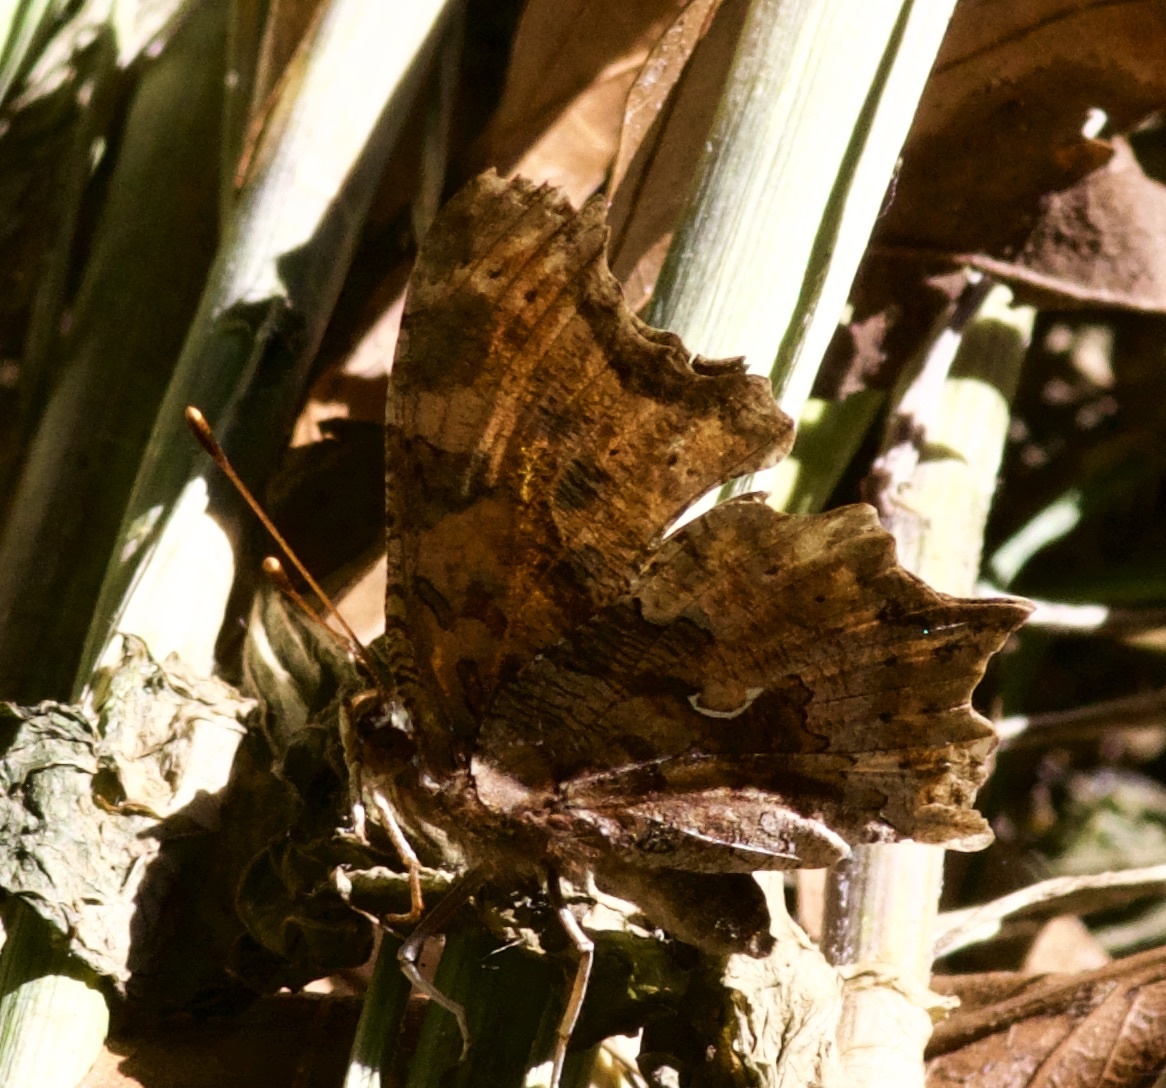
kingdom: Animalia
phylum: Arthropoda
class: Insecta
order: Lepidoptera
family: Nymphalidae
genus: Polygonia
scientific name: Polygonia comma
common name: Eastern comma
